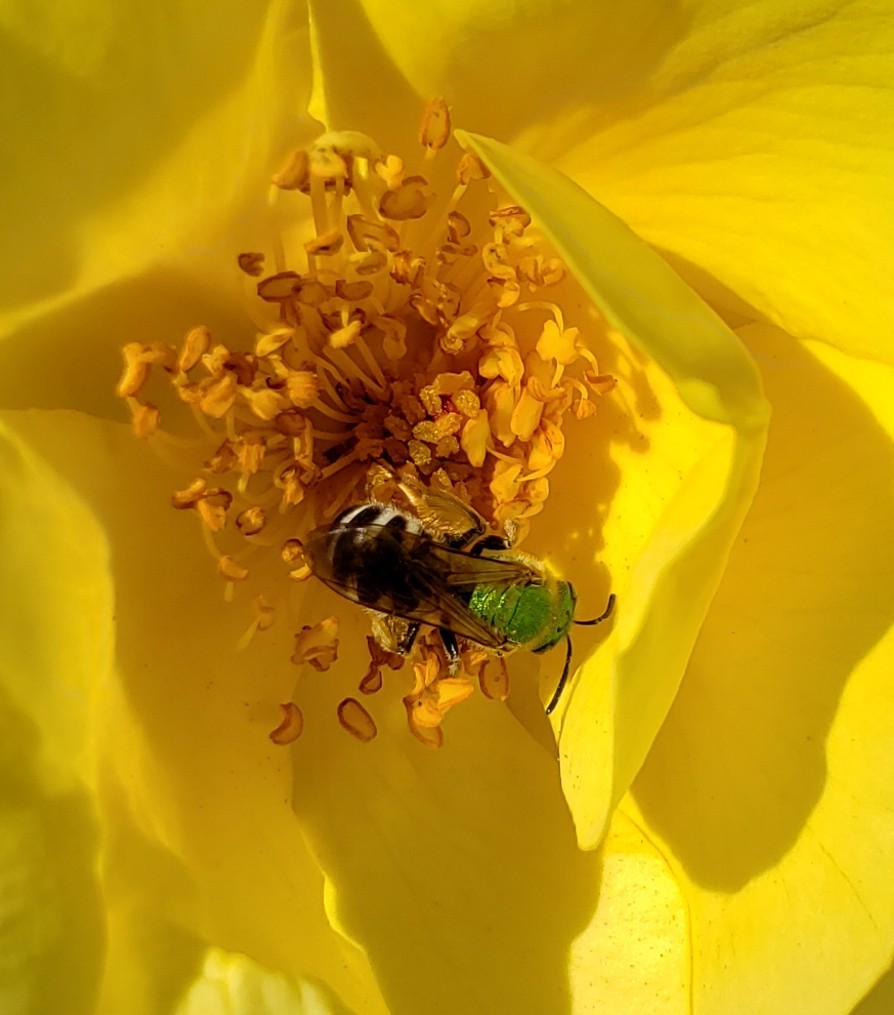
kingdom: Animalia
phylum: Arthropoda
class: Insecta
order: Hymenoptera
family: Halictidae
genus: Agapostemon
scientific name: Agapostemon virescens
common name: Bicolored striped sweat bee
